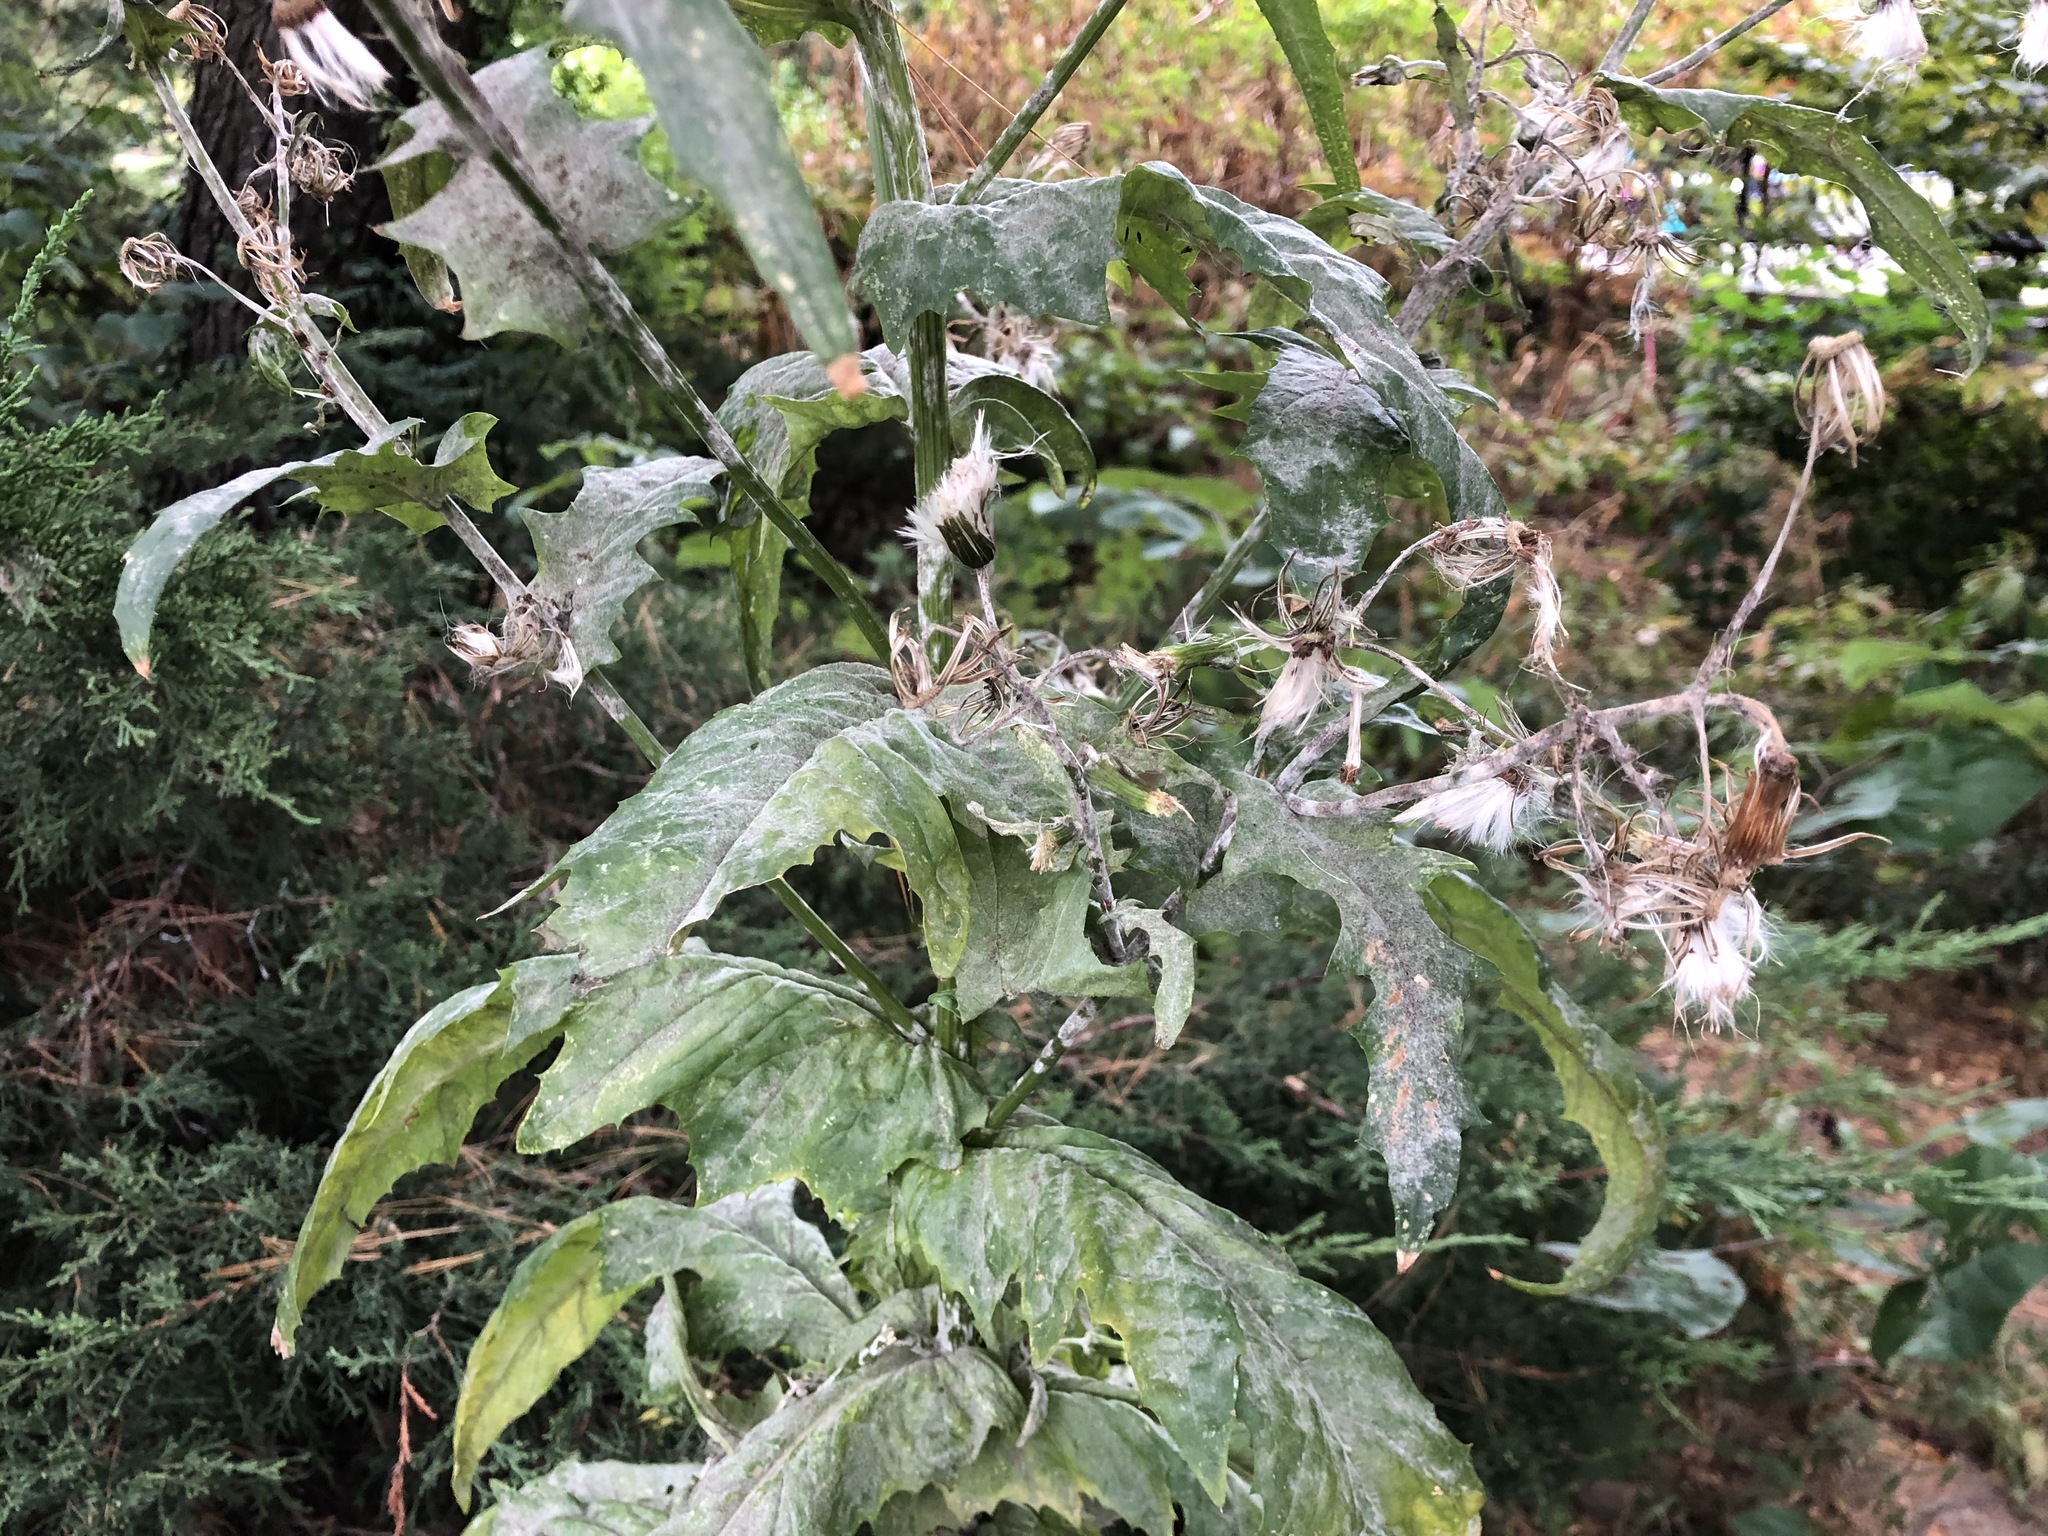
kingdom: Plantae
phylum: Tracheophyta
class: Magnoliopsida
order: Asterales
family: Asteraceae
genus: Erechtites
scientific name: Erechtites hieraciifolius
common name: American burnweed
